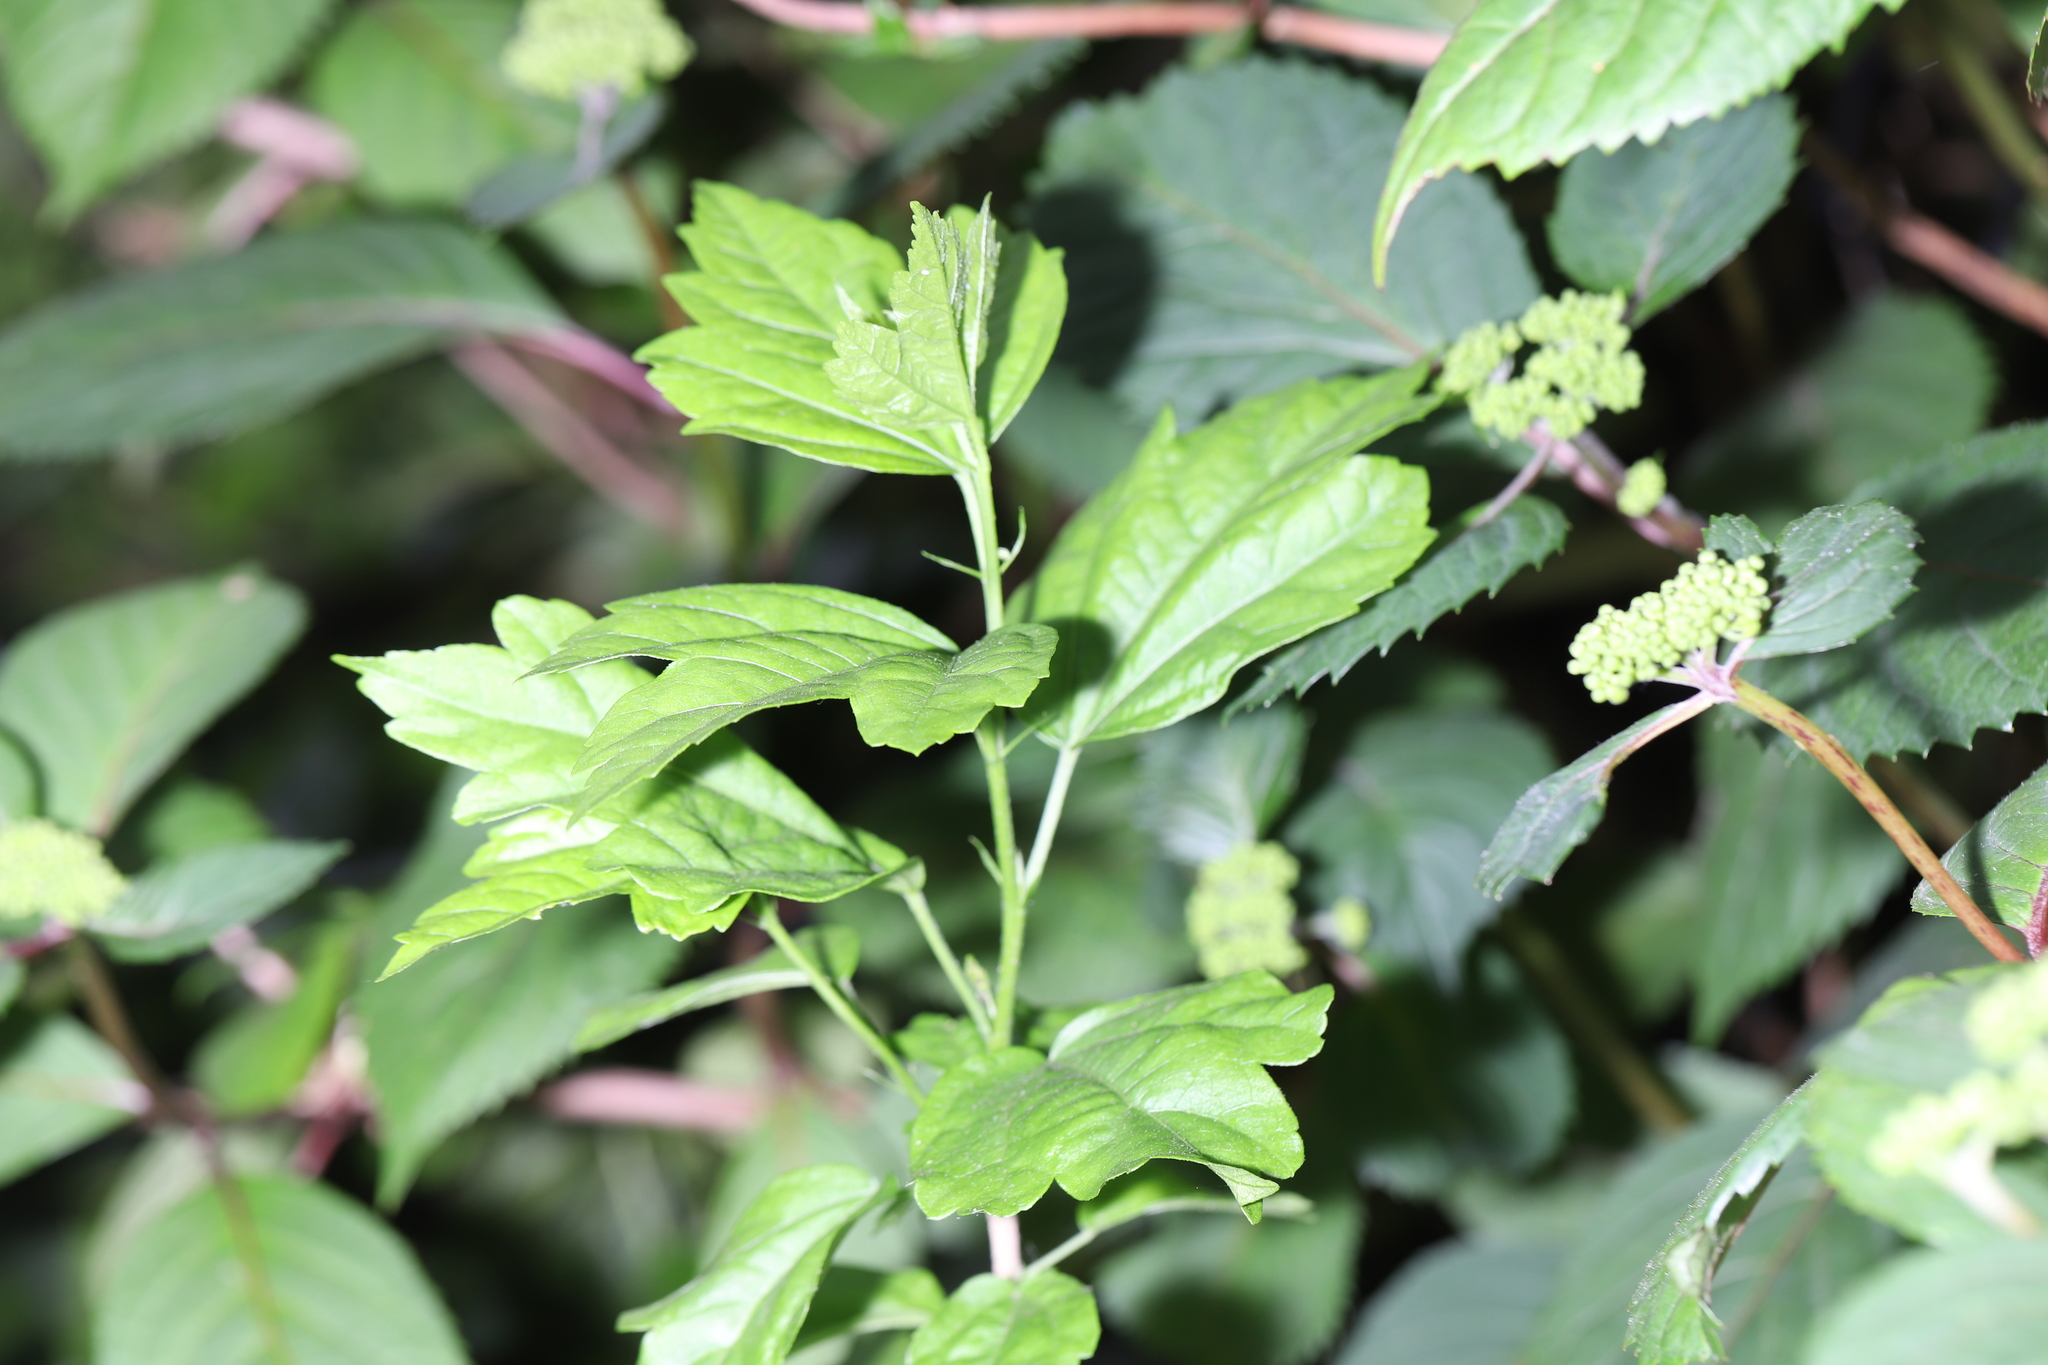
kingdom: Plantae
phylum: Tracheophyta
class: Magnoliopsida
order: Malvales
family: Malvaceae
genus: Hibiscus
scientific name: Hibiscus syriacus
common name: Syrian ketmia
